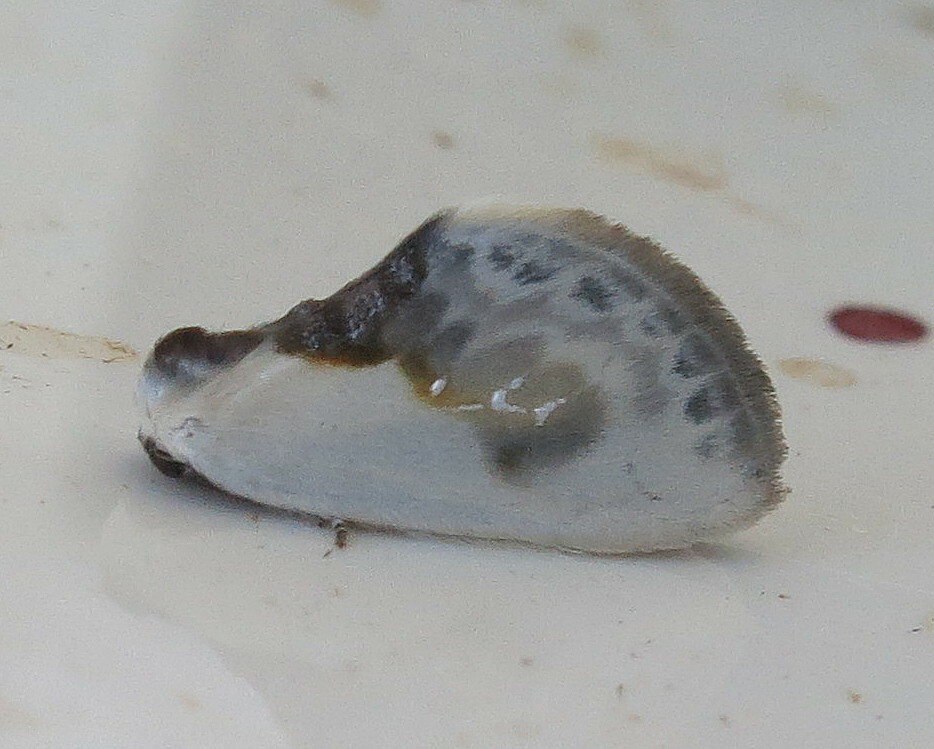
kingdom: Animalia
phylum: Arthropoda
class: Insecta
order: Lepidoptera
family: Drepanidae
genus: Cilix
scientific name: Cilix glaucata
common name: Chinese character
